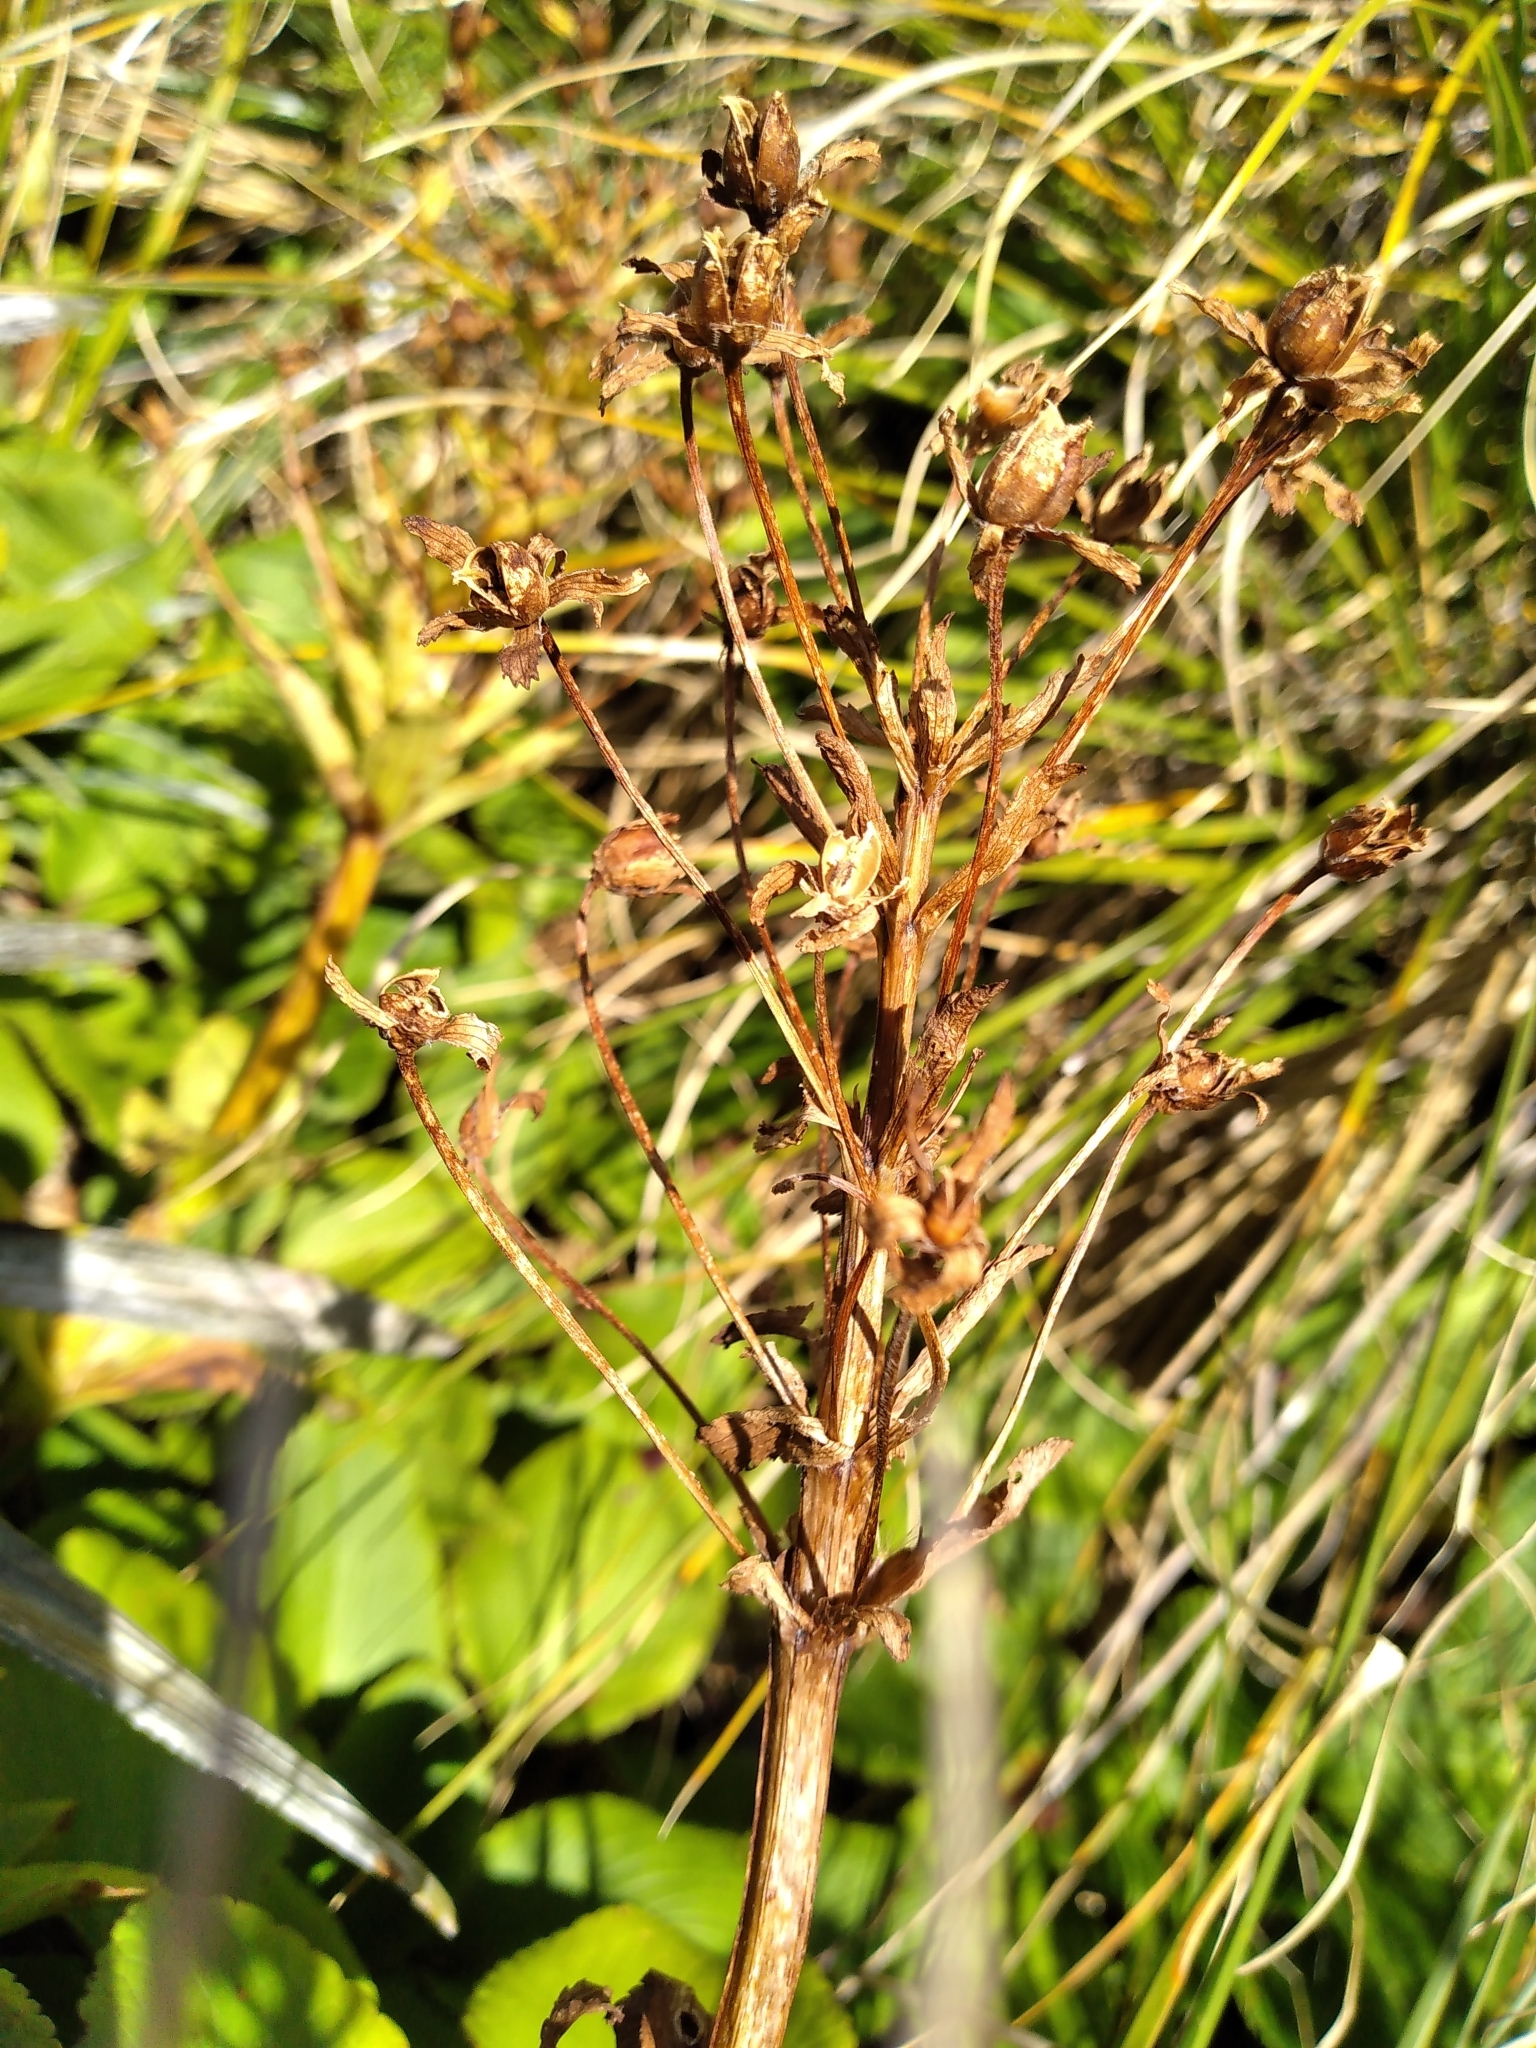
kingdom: Plantae
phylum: Tracheophyta
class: Magnoliopsida
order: Lamiales
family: Plantaginaceae
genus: Ourisia
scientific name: Ourisia calycina
